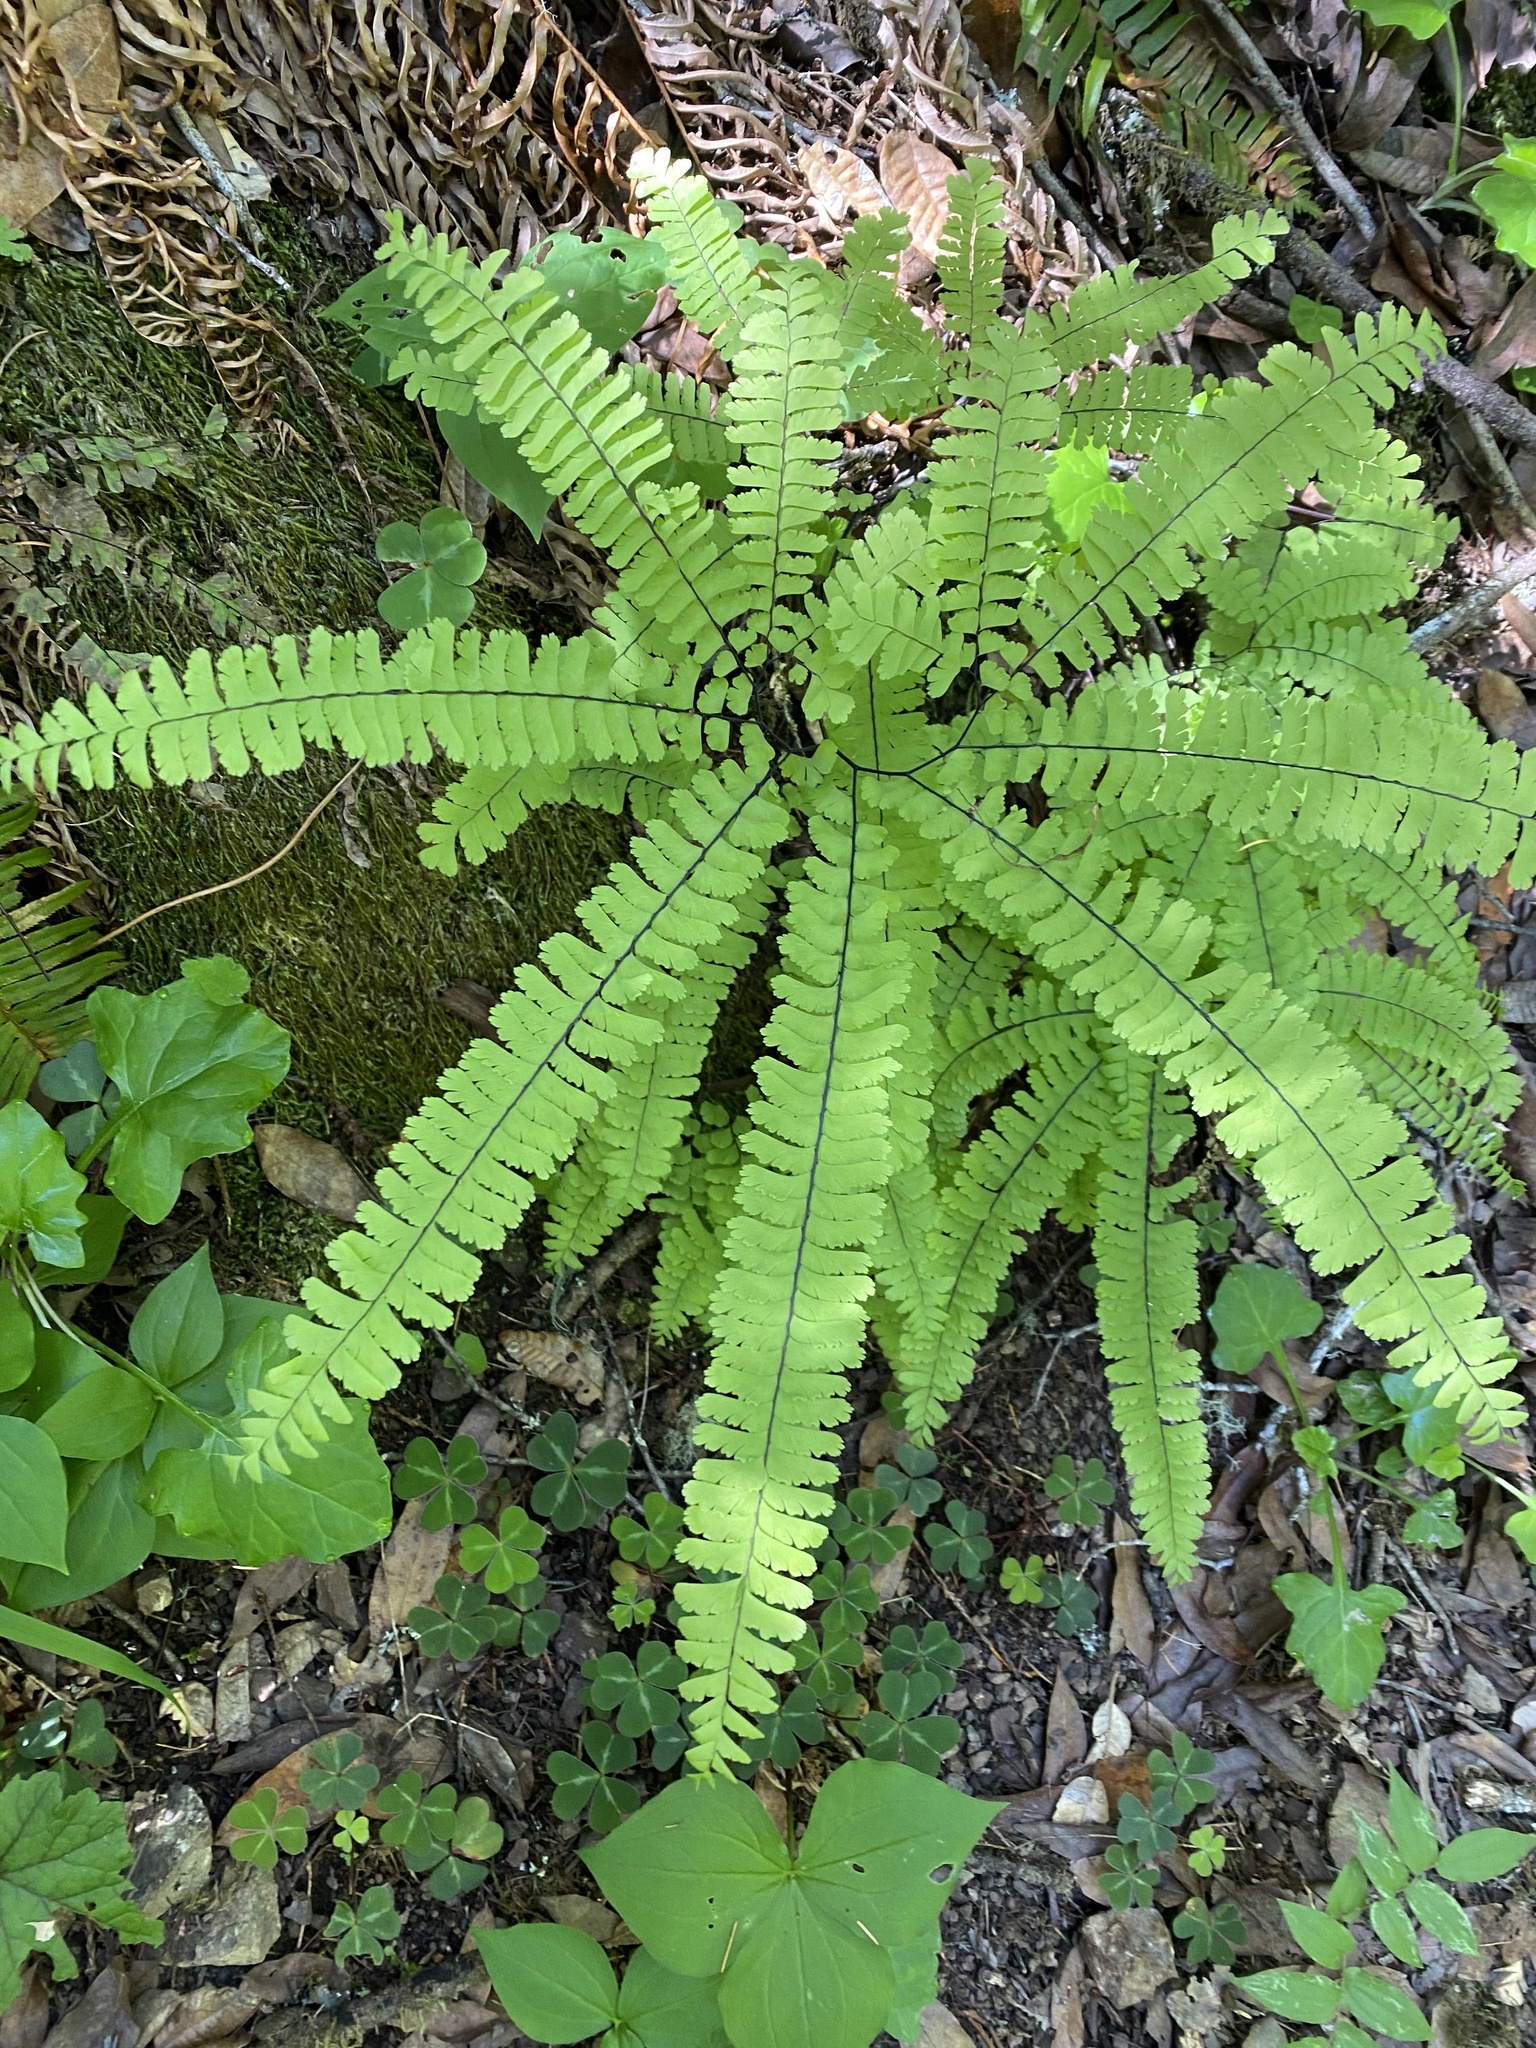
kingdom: Plantae
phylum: Tracheophyta
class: Polypodiopsida
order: Polypodiales
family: Pteridaceae
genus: Adiantum
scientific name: Adiantum aleuticum
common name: Aleutian maidenhair fern
